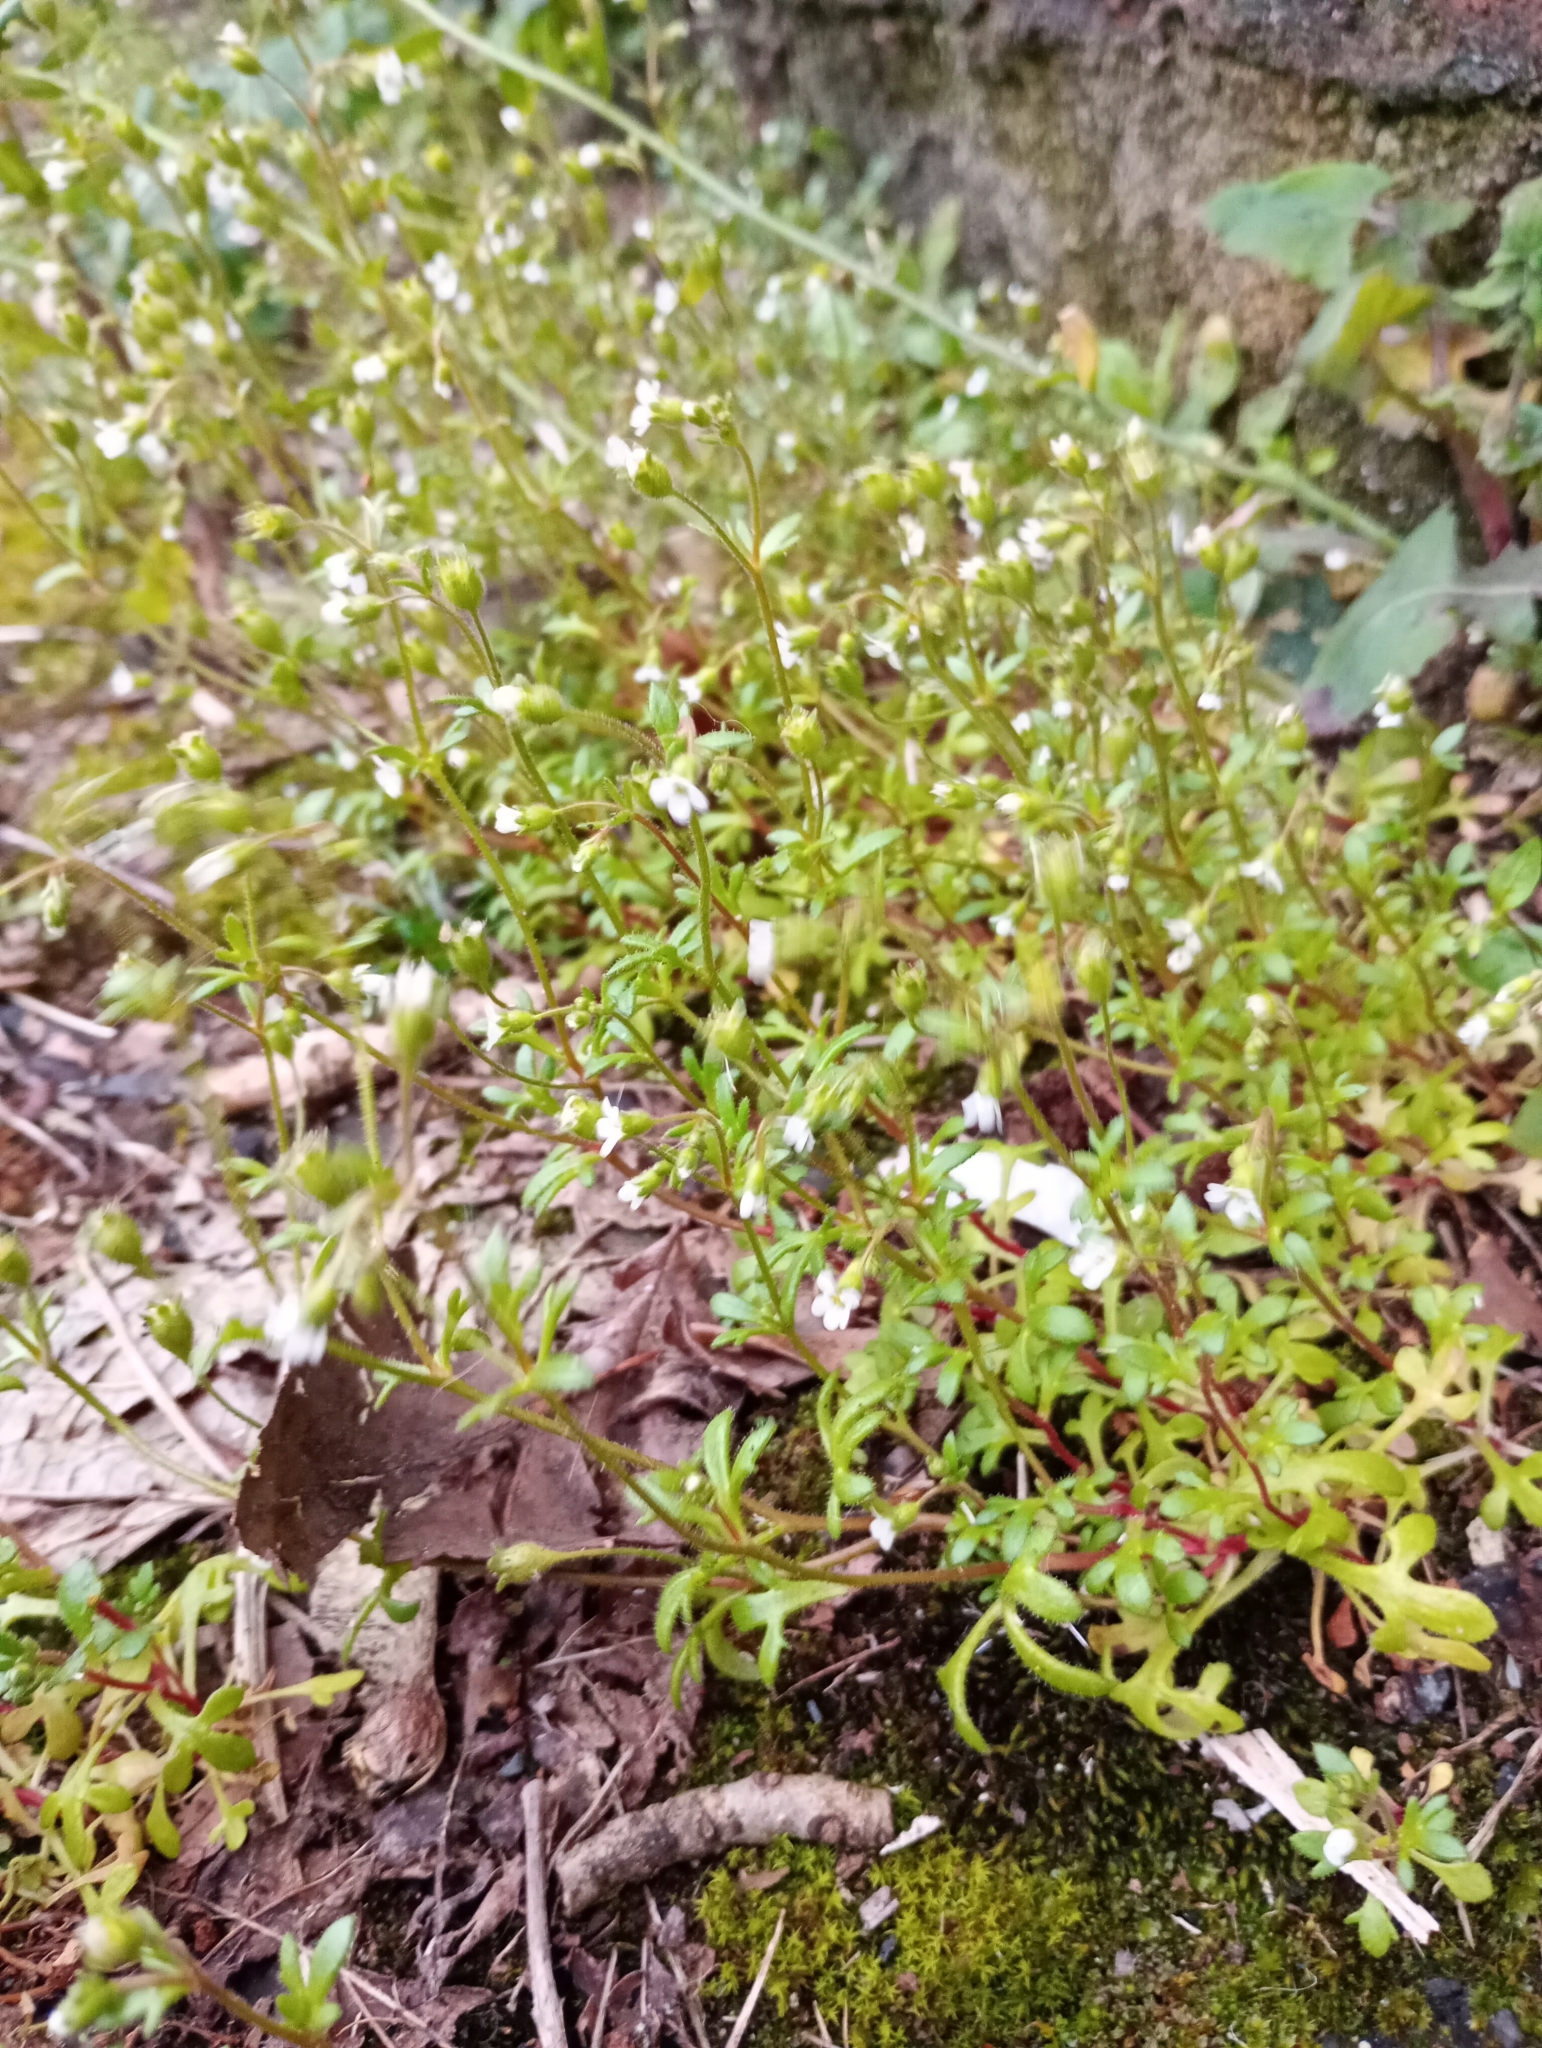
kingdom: Plantae
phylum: Tracheophyta
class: Magnoliopsida
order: Saxifragales
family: Saxifragaceae
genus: Saxifraga
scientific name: Saxifraga tridactylites
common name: Rue-leaved saxifrage
